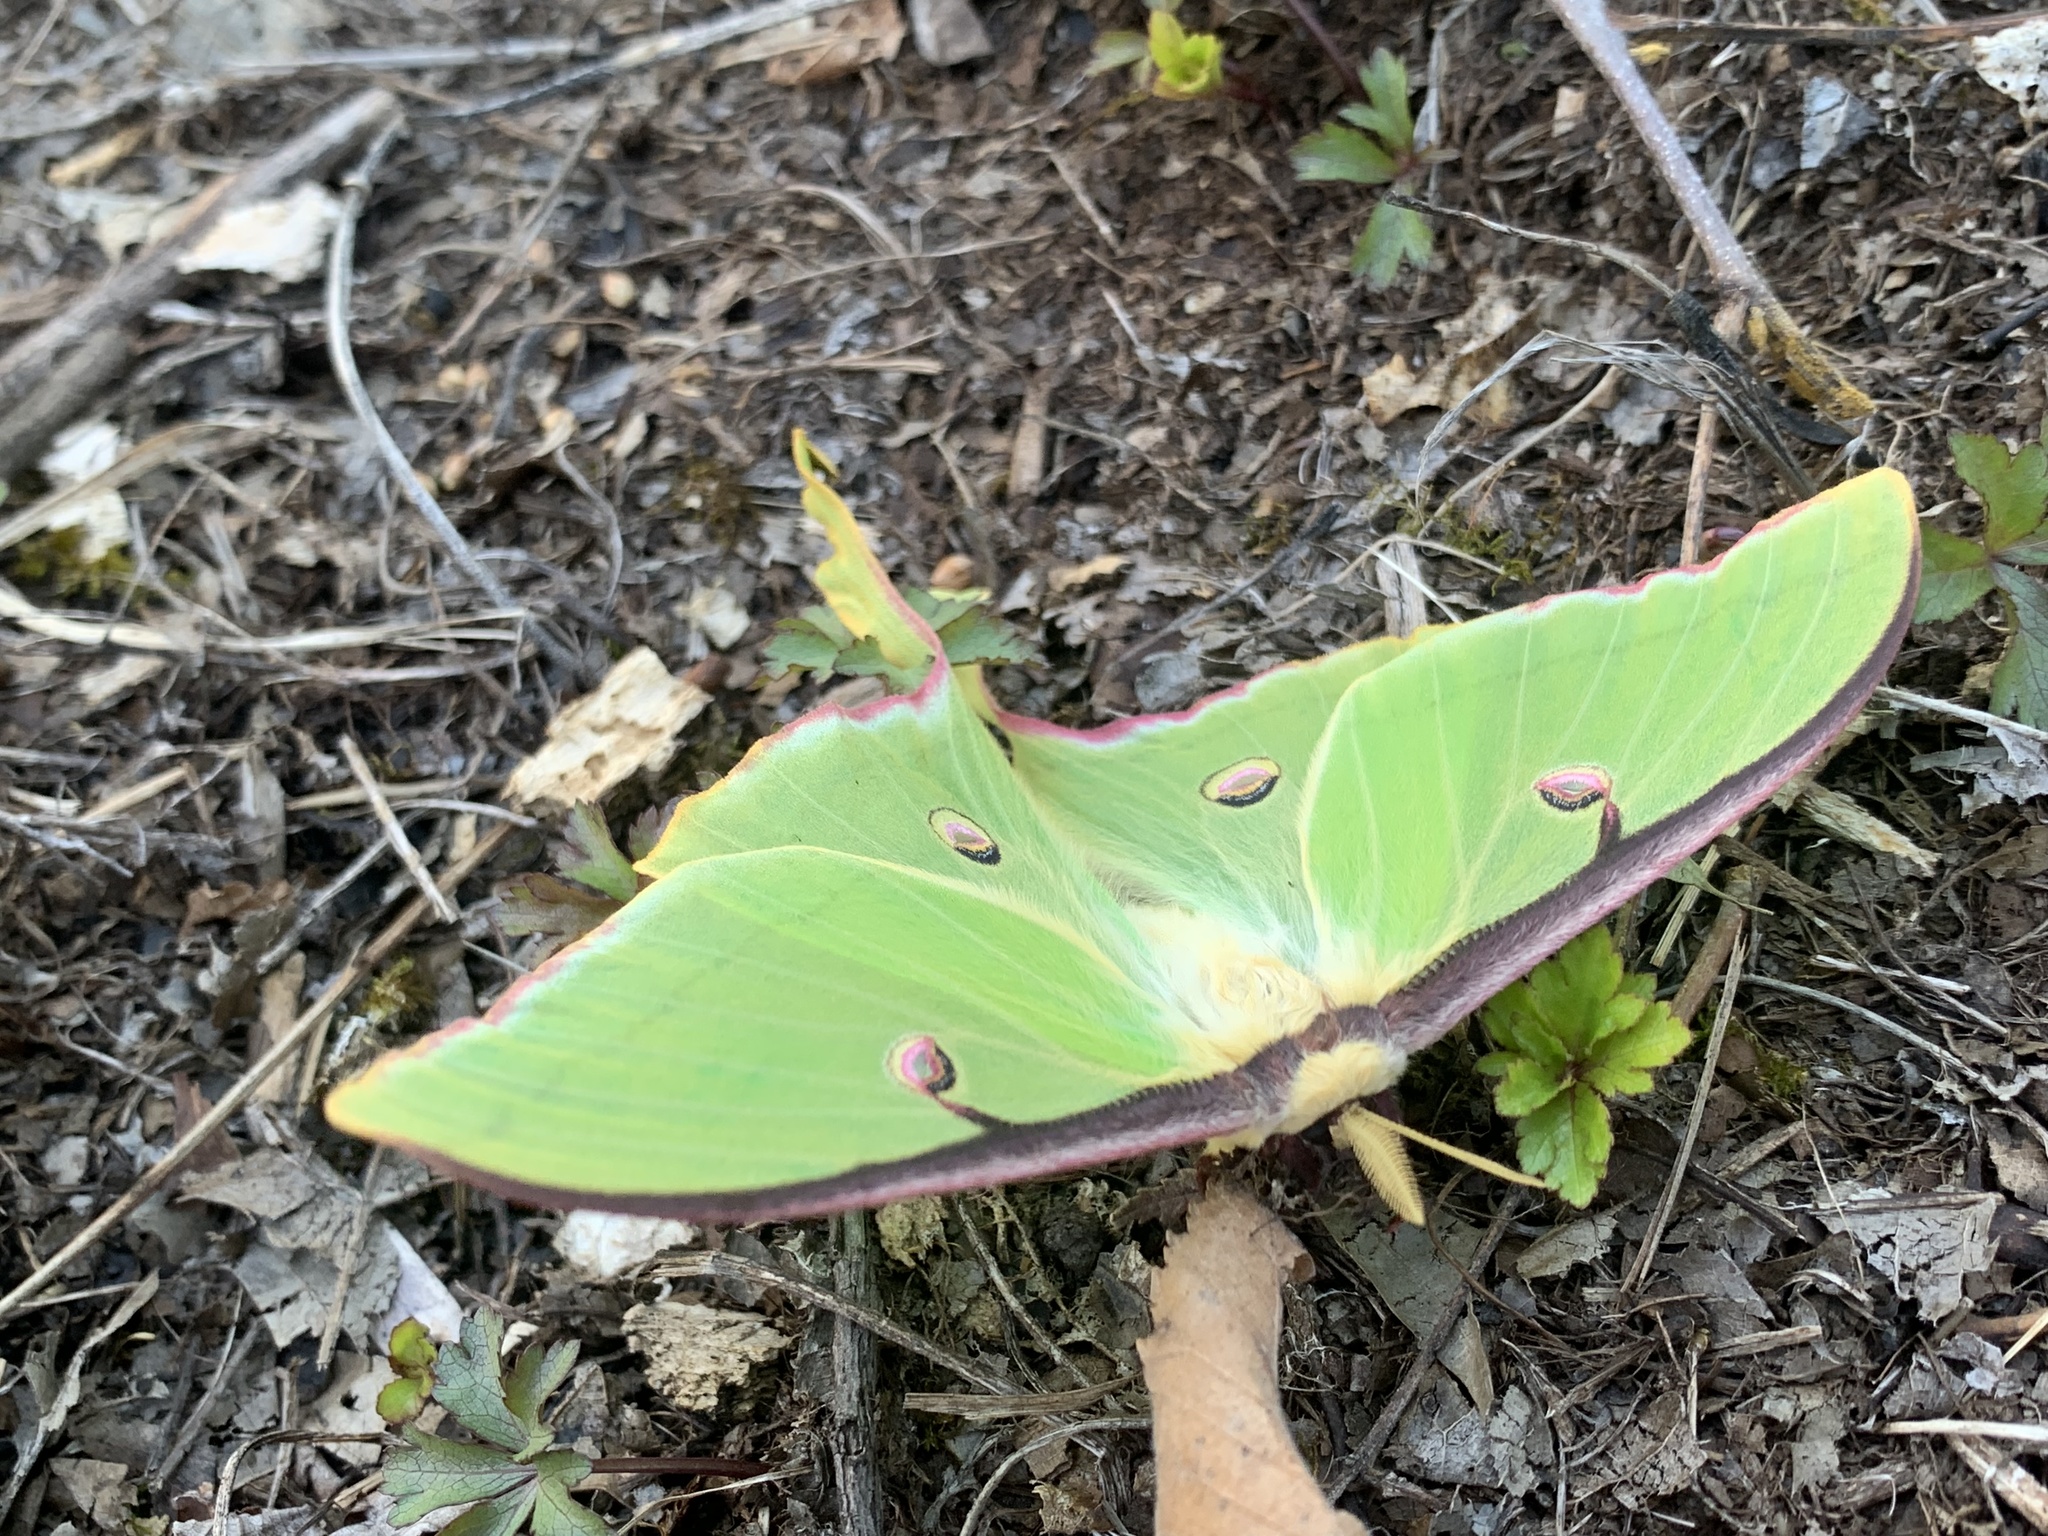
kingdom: Animalia
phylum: Arthropoda
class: Insecta
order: Lepidoptera
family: Saturniidae
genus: Actias
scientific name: Actias luna
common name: Luna moth
